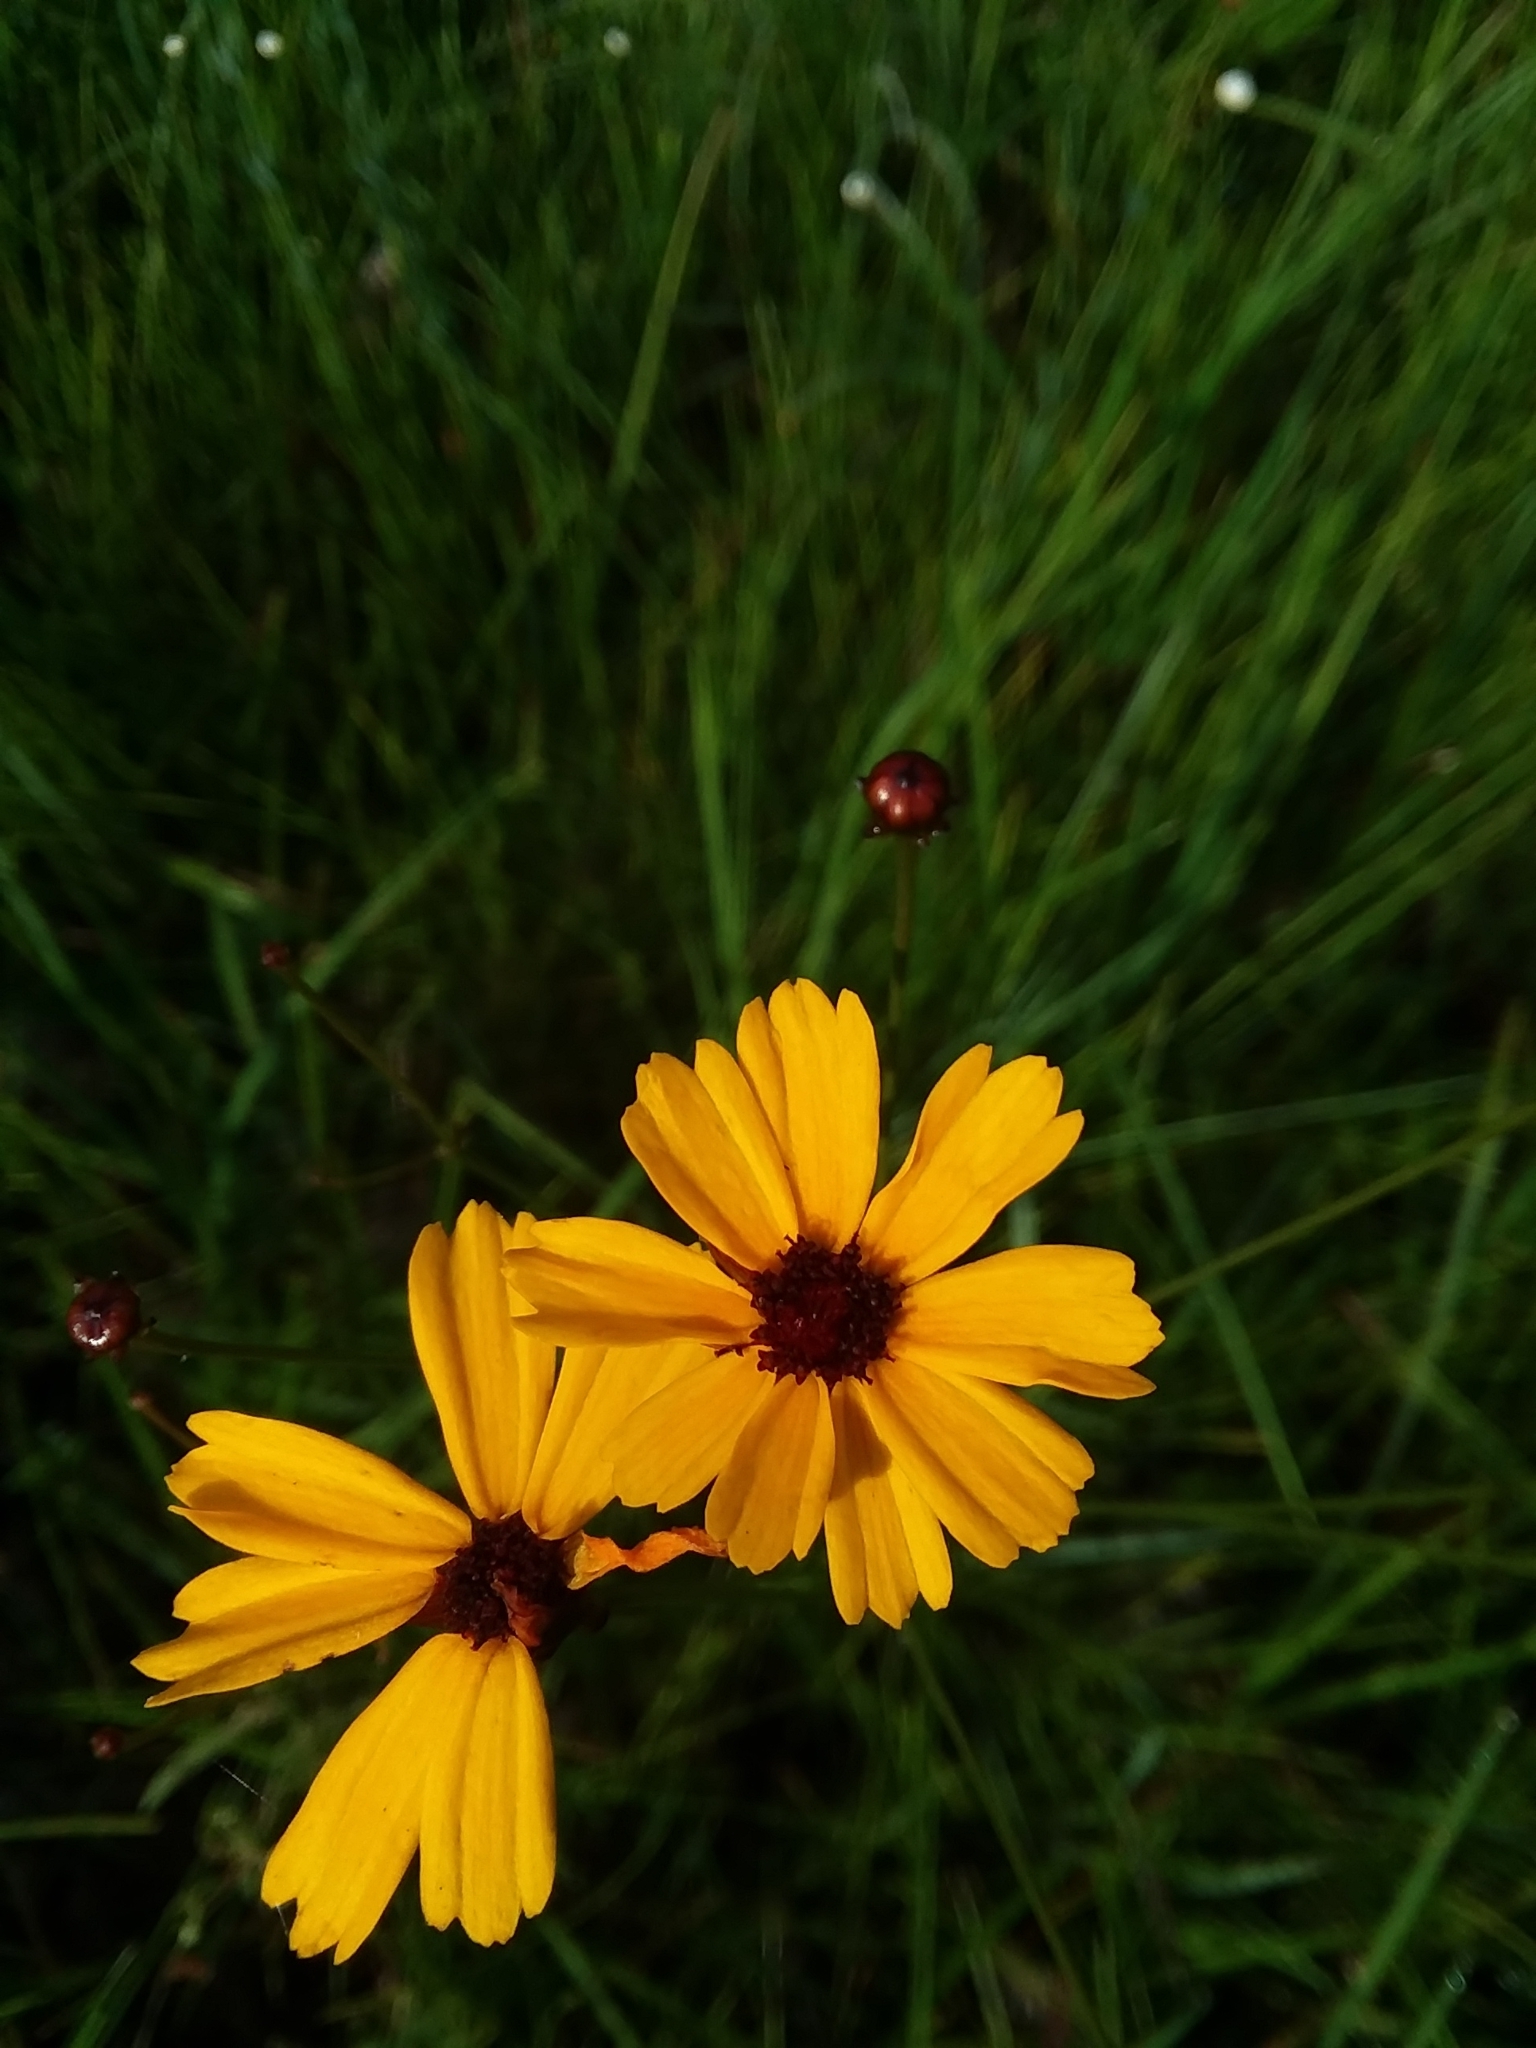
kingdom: Plantae
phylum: Tracheophyta
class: Magnoliopsida
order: Asterales
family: Asteraceae
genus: Coreopsis
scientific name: Coreopsis gladiata
